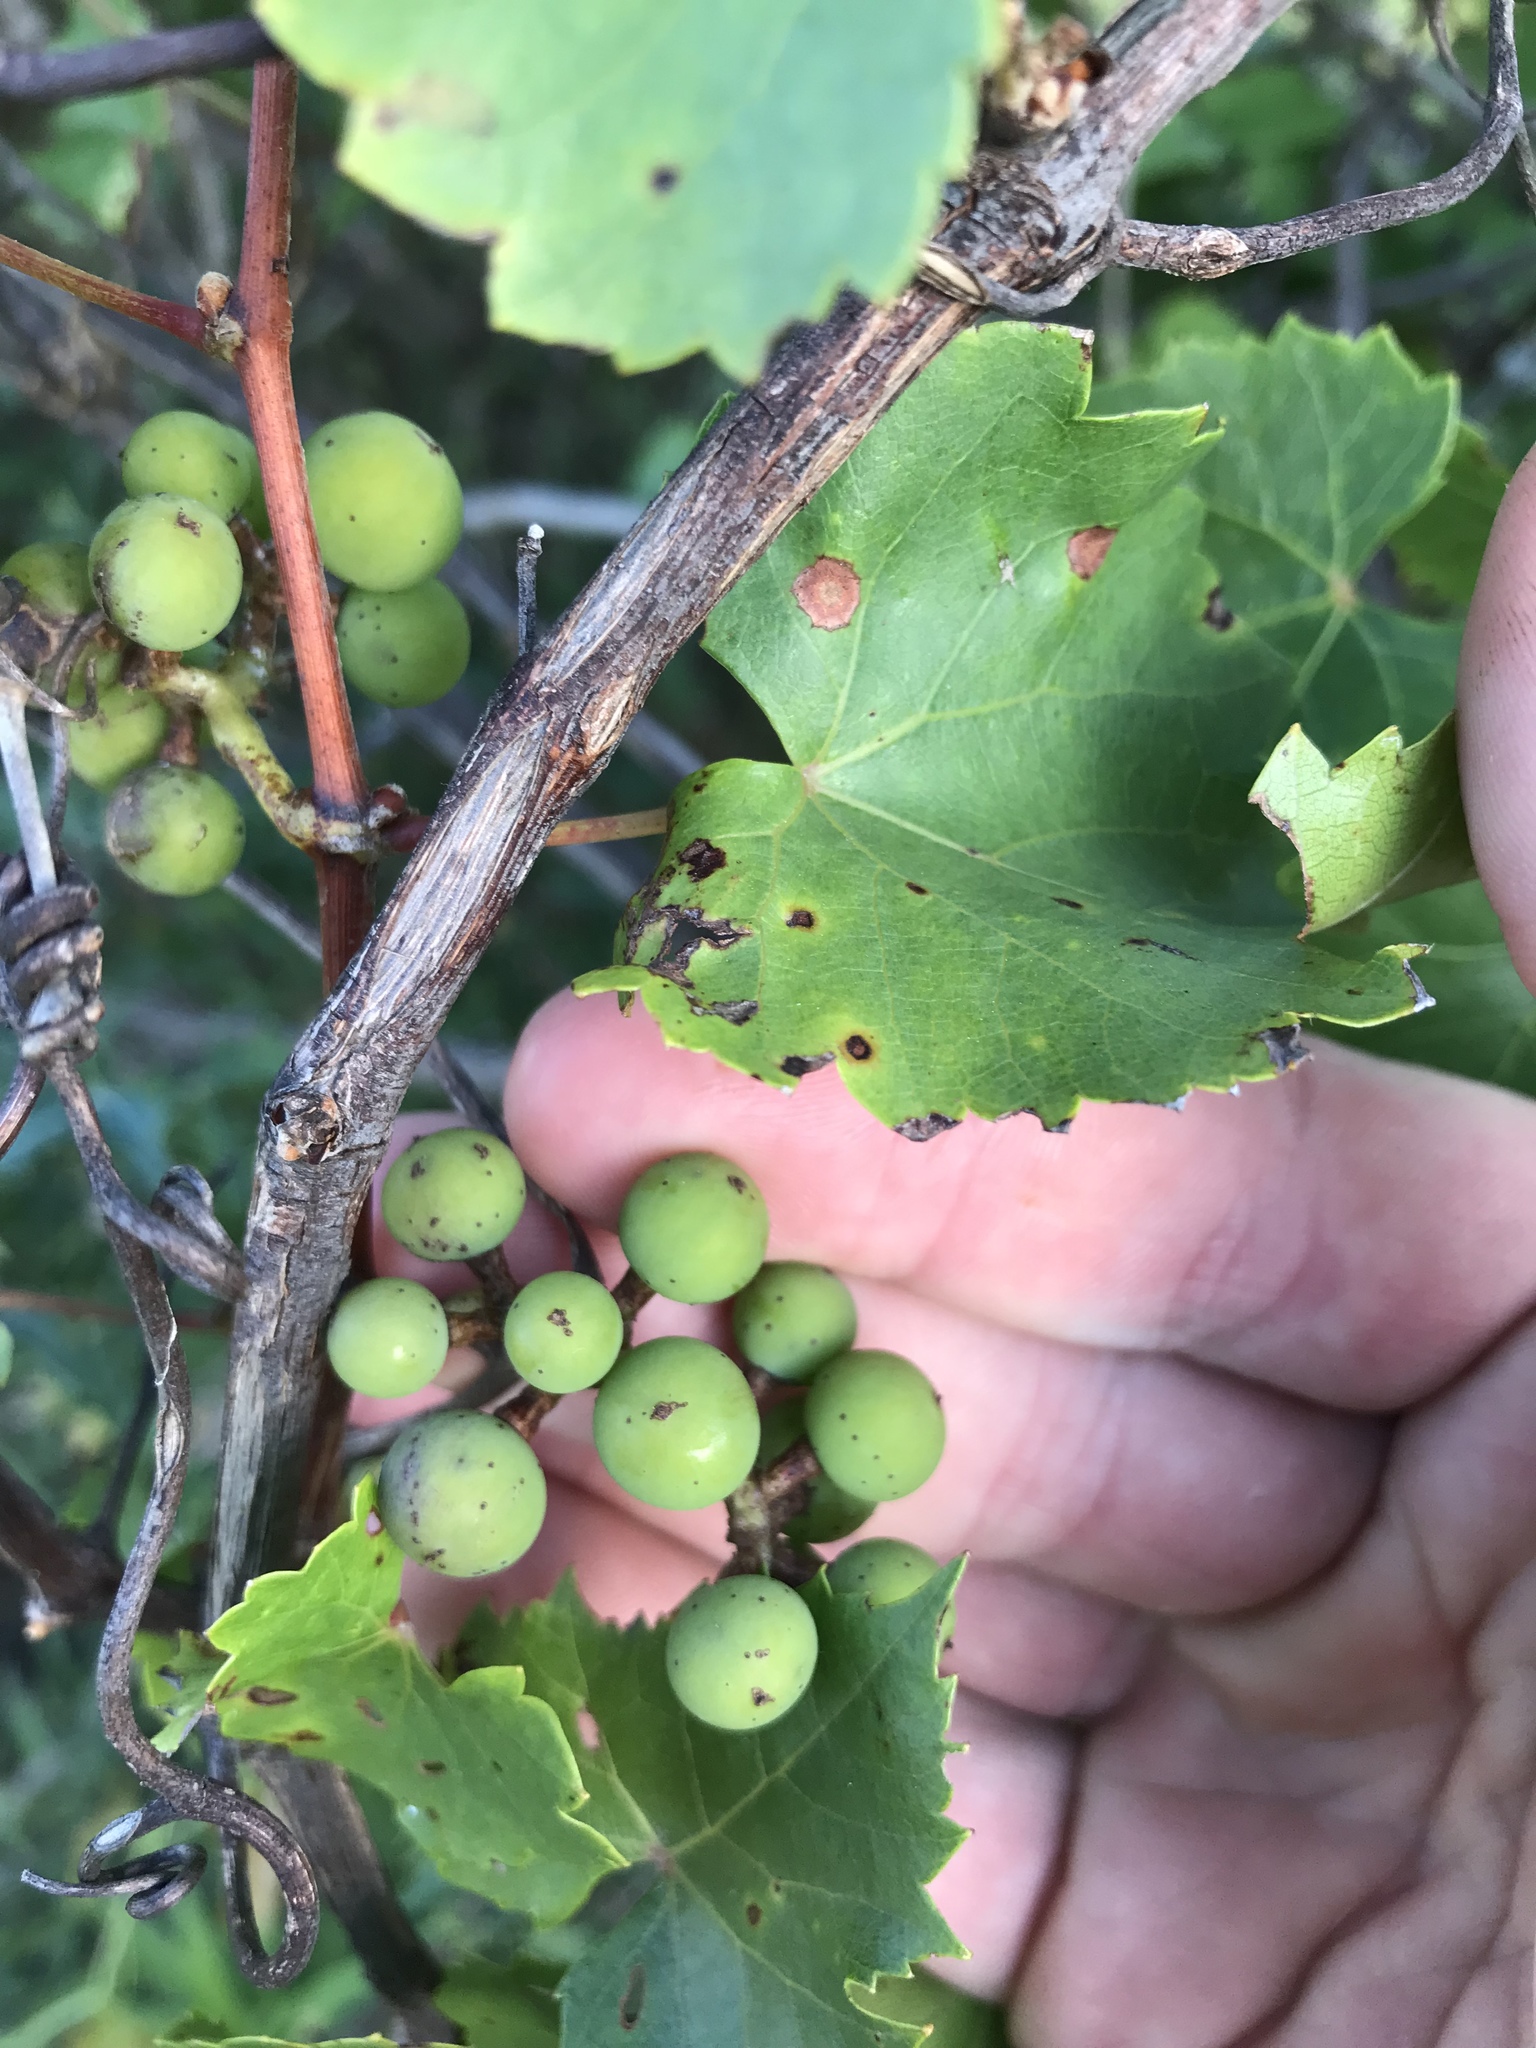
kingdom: Plantae
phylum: Tracheophyta
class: Magnoliopsida
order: Vitales
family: Vitaceae
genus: Vitis
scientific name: Vitis monticola
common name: Mountain grape
